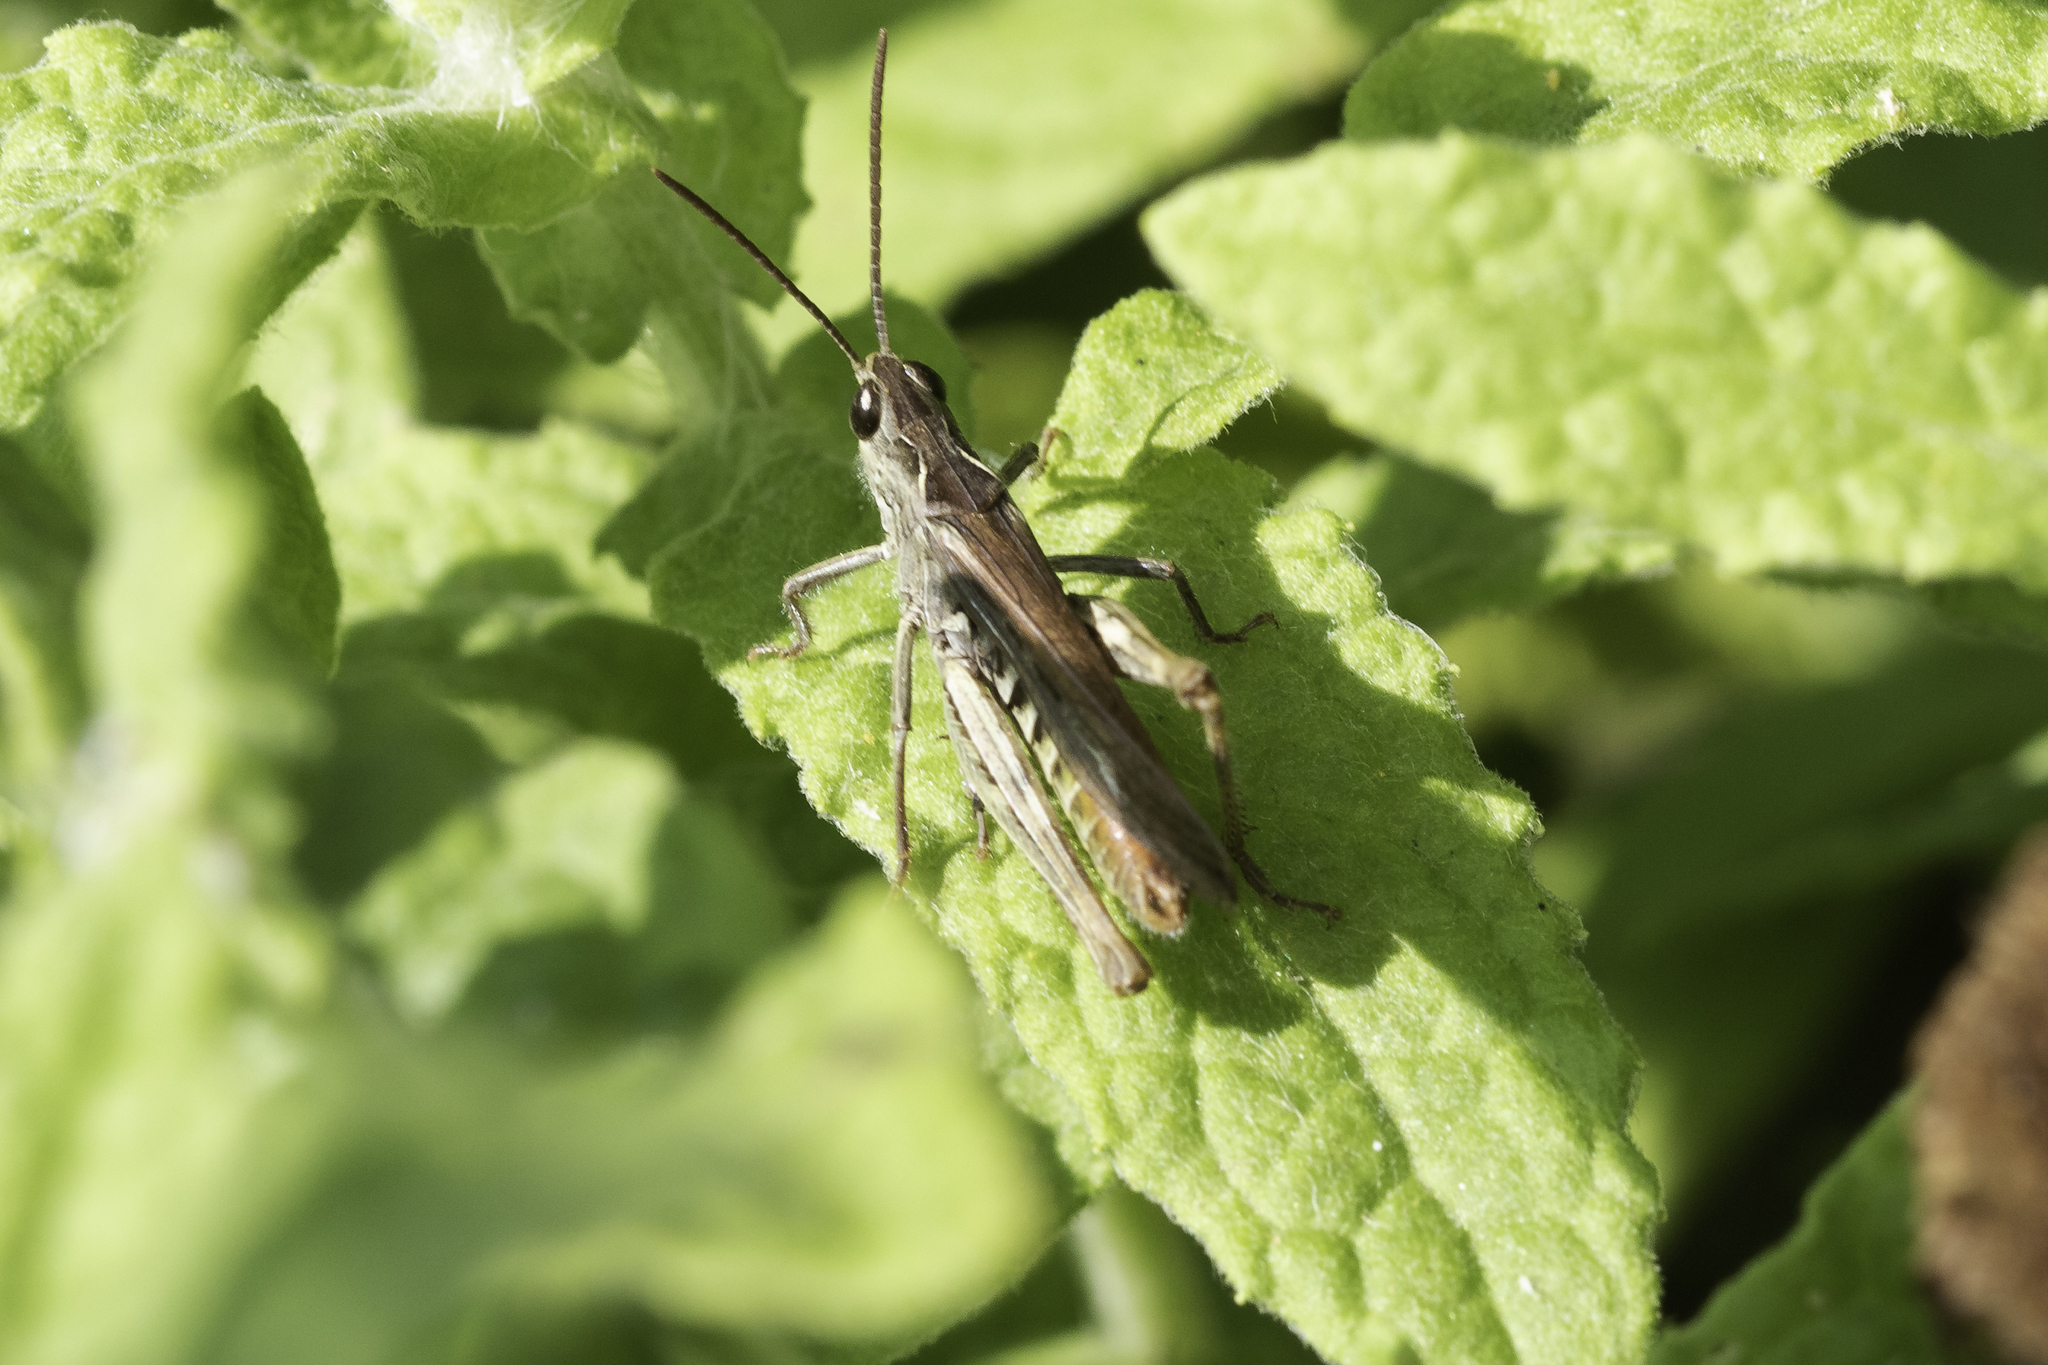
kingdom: Animalia
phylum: Arthropoda
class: Insecta
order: Orthoptera
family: Acrididae
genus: Chorthippus
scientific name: Chorthippus brunneus
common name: Field grasshopper
